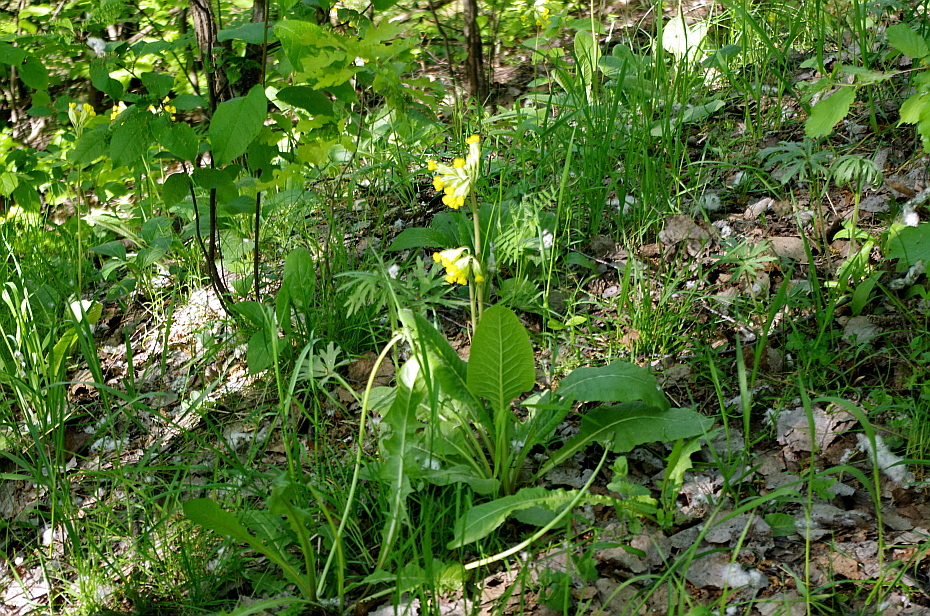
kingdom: Plantae
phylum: Tracheophyta
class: Magnoliopsida
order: Ericales
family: Primulaceae
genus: Primula
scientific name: Primula veris
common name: Cowslip
